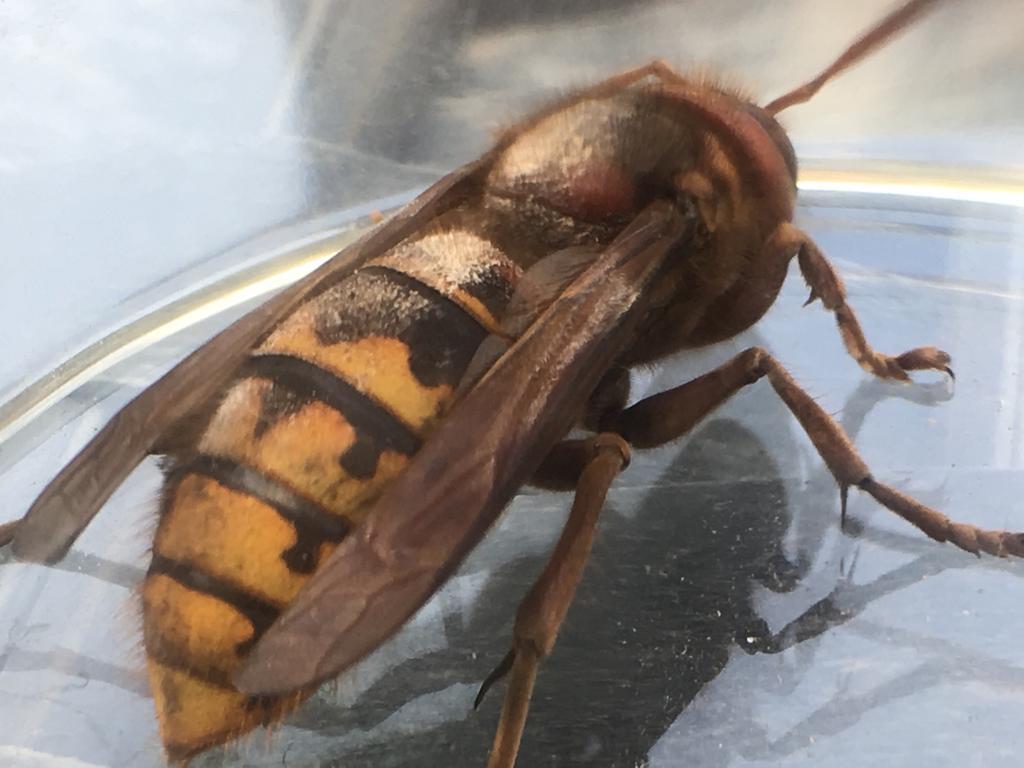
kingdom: Animalia
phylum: Arthropoda
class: Insecta
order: Hymenoptera
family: Vespidae
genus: Vespa
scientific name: Vespa crabro
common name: Hornet
